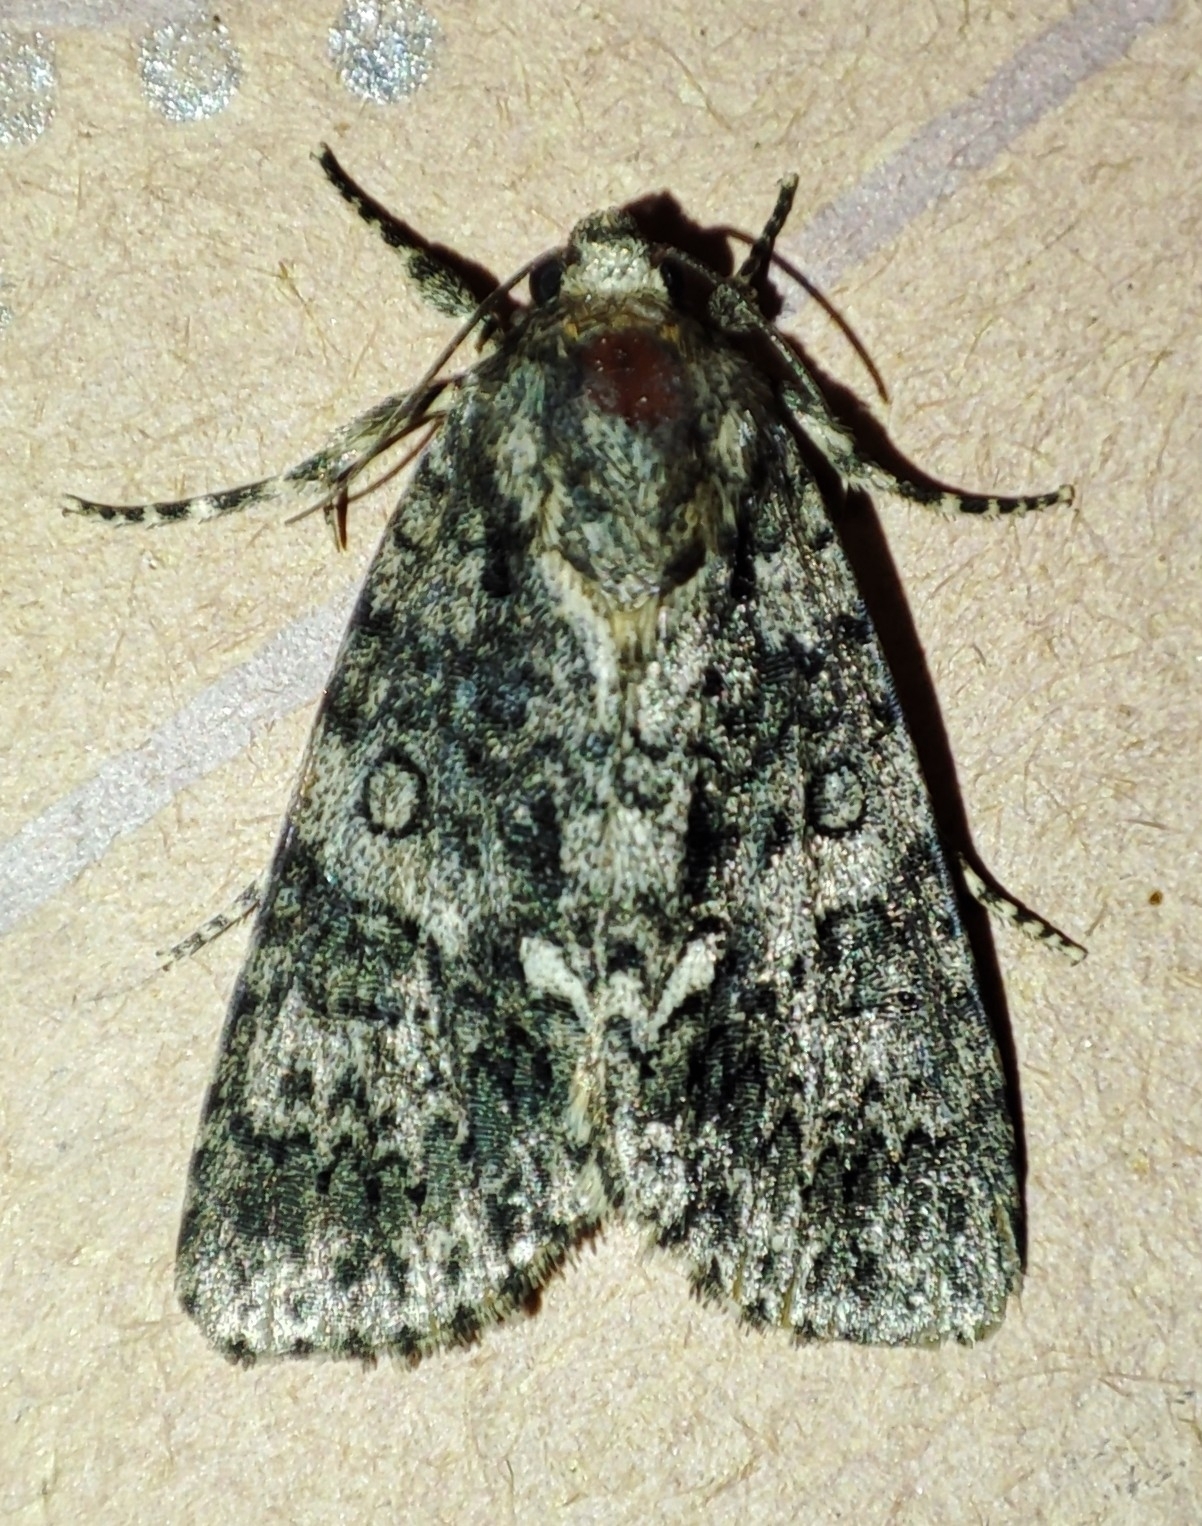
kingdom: Animalia
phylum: Arthropoda
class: Insecta
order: Lepidoptera
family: Noctuidae
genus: Acronicta
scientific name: Acronicta rumicis
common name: Knot grass
